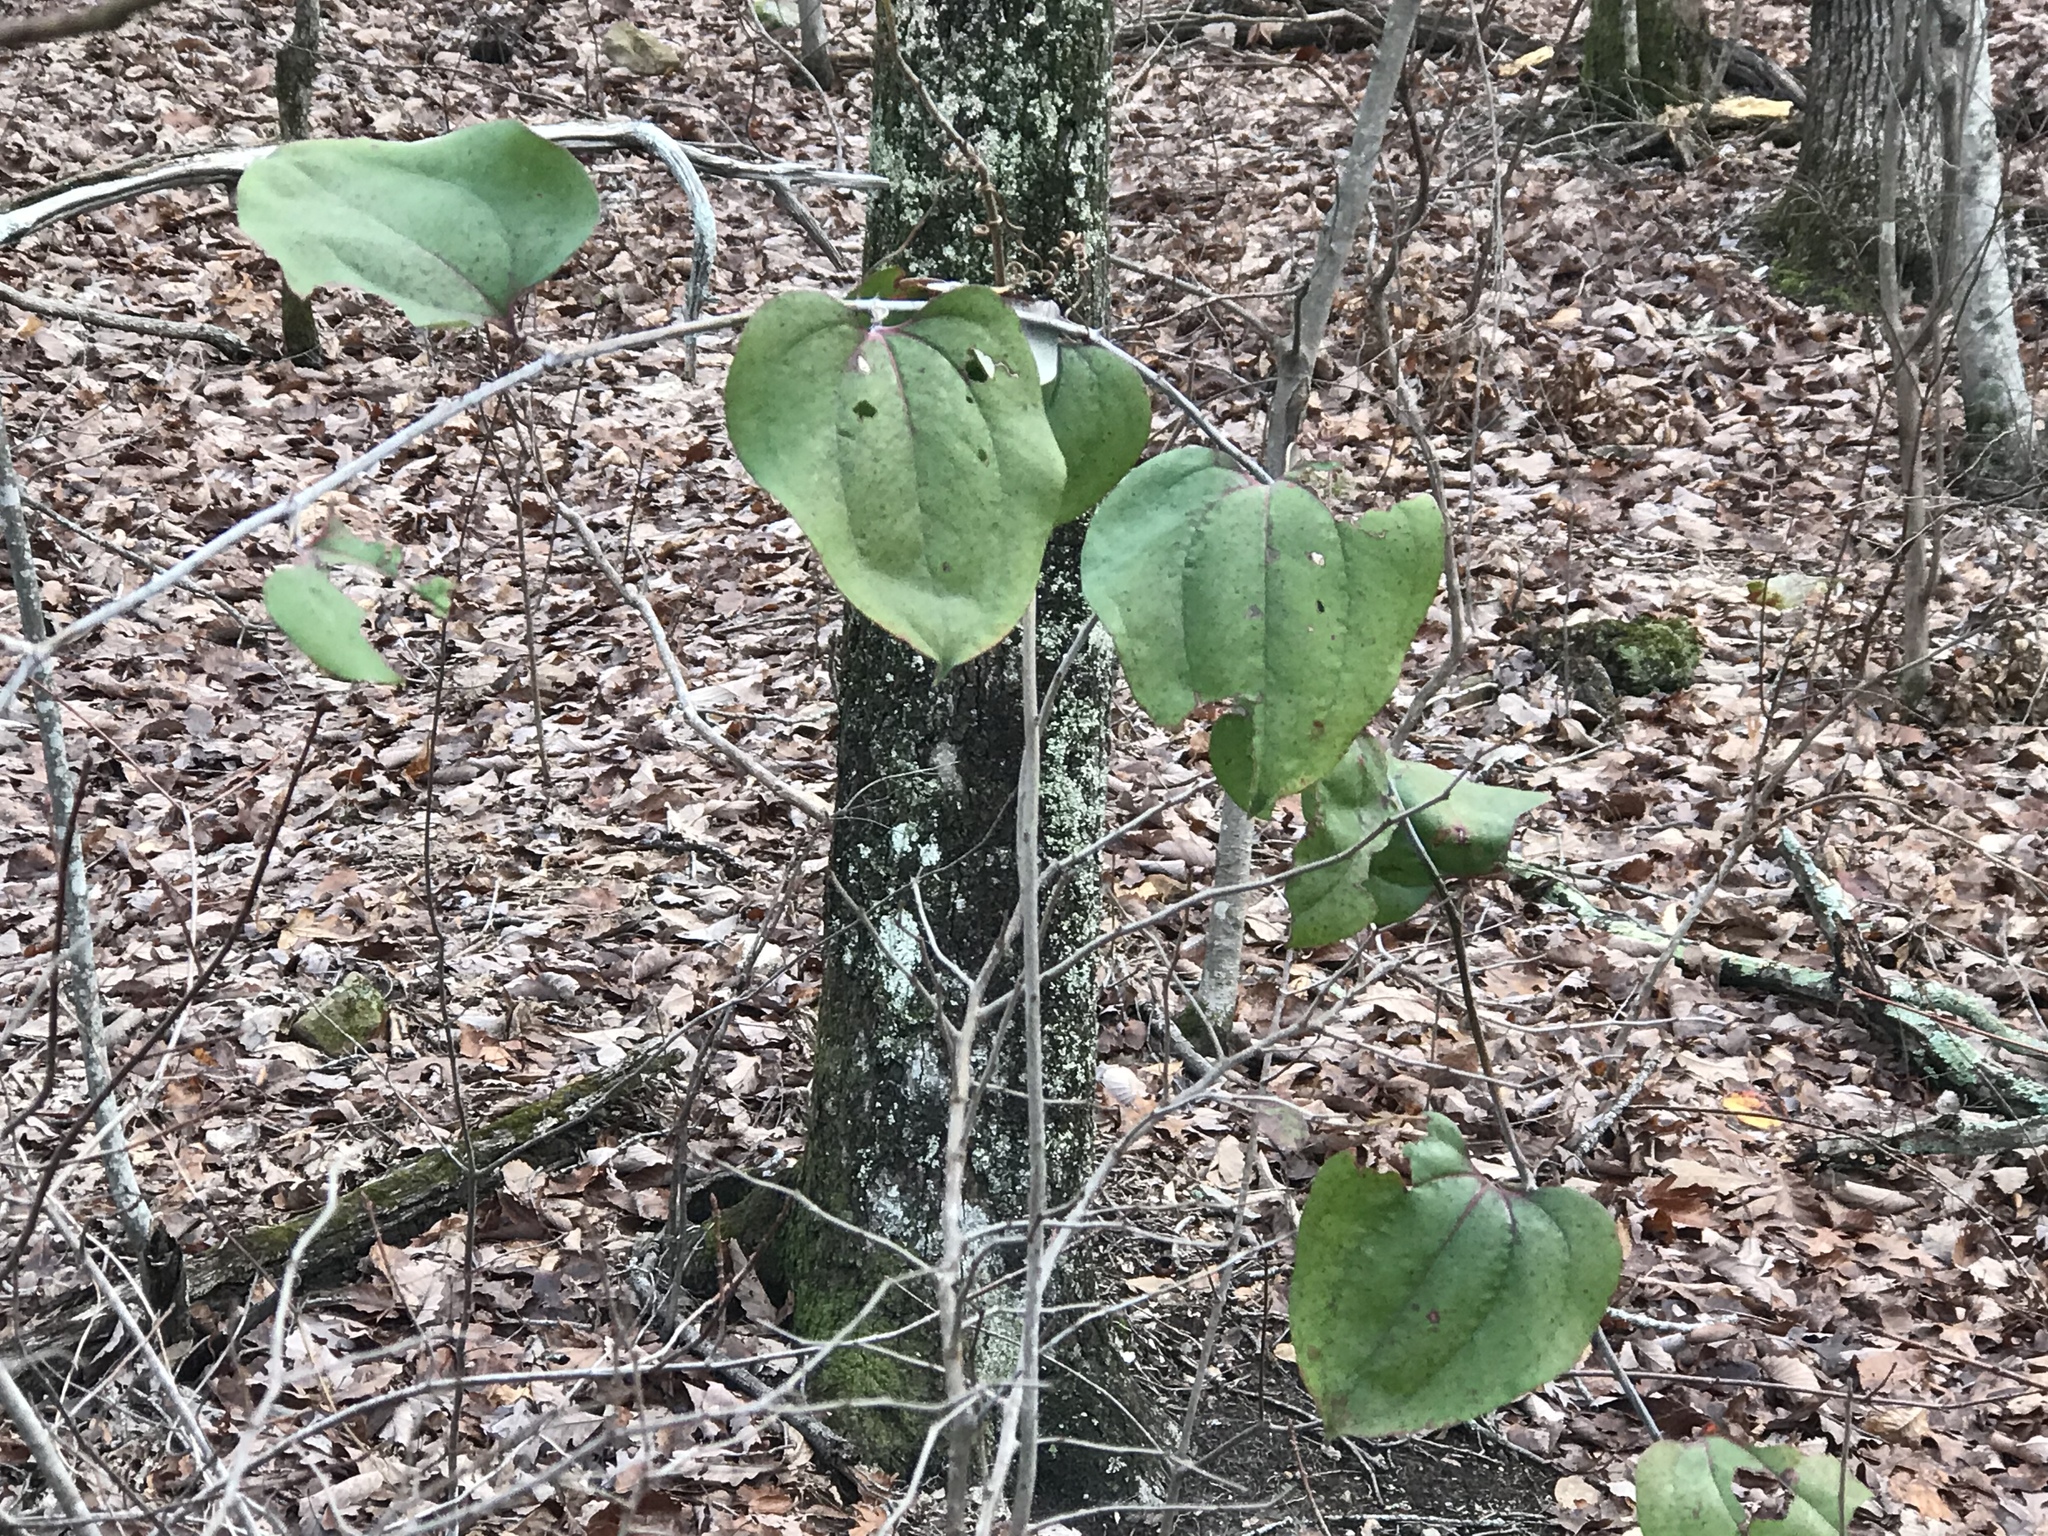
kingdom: Plantae
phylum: Tracheophyta
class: Liliopsida
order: Liliales
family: Smilacaceae
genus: Smilax
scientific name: Smilax glauca
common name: Cat greenbrier
